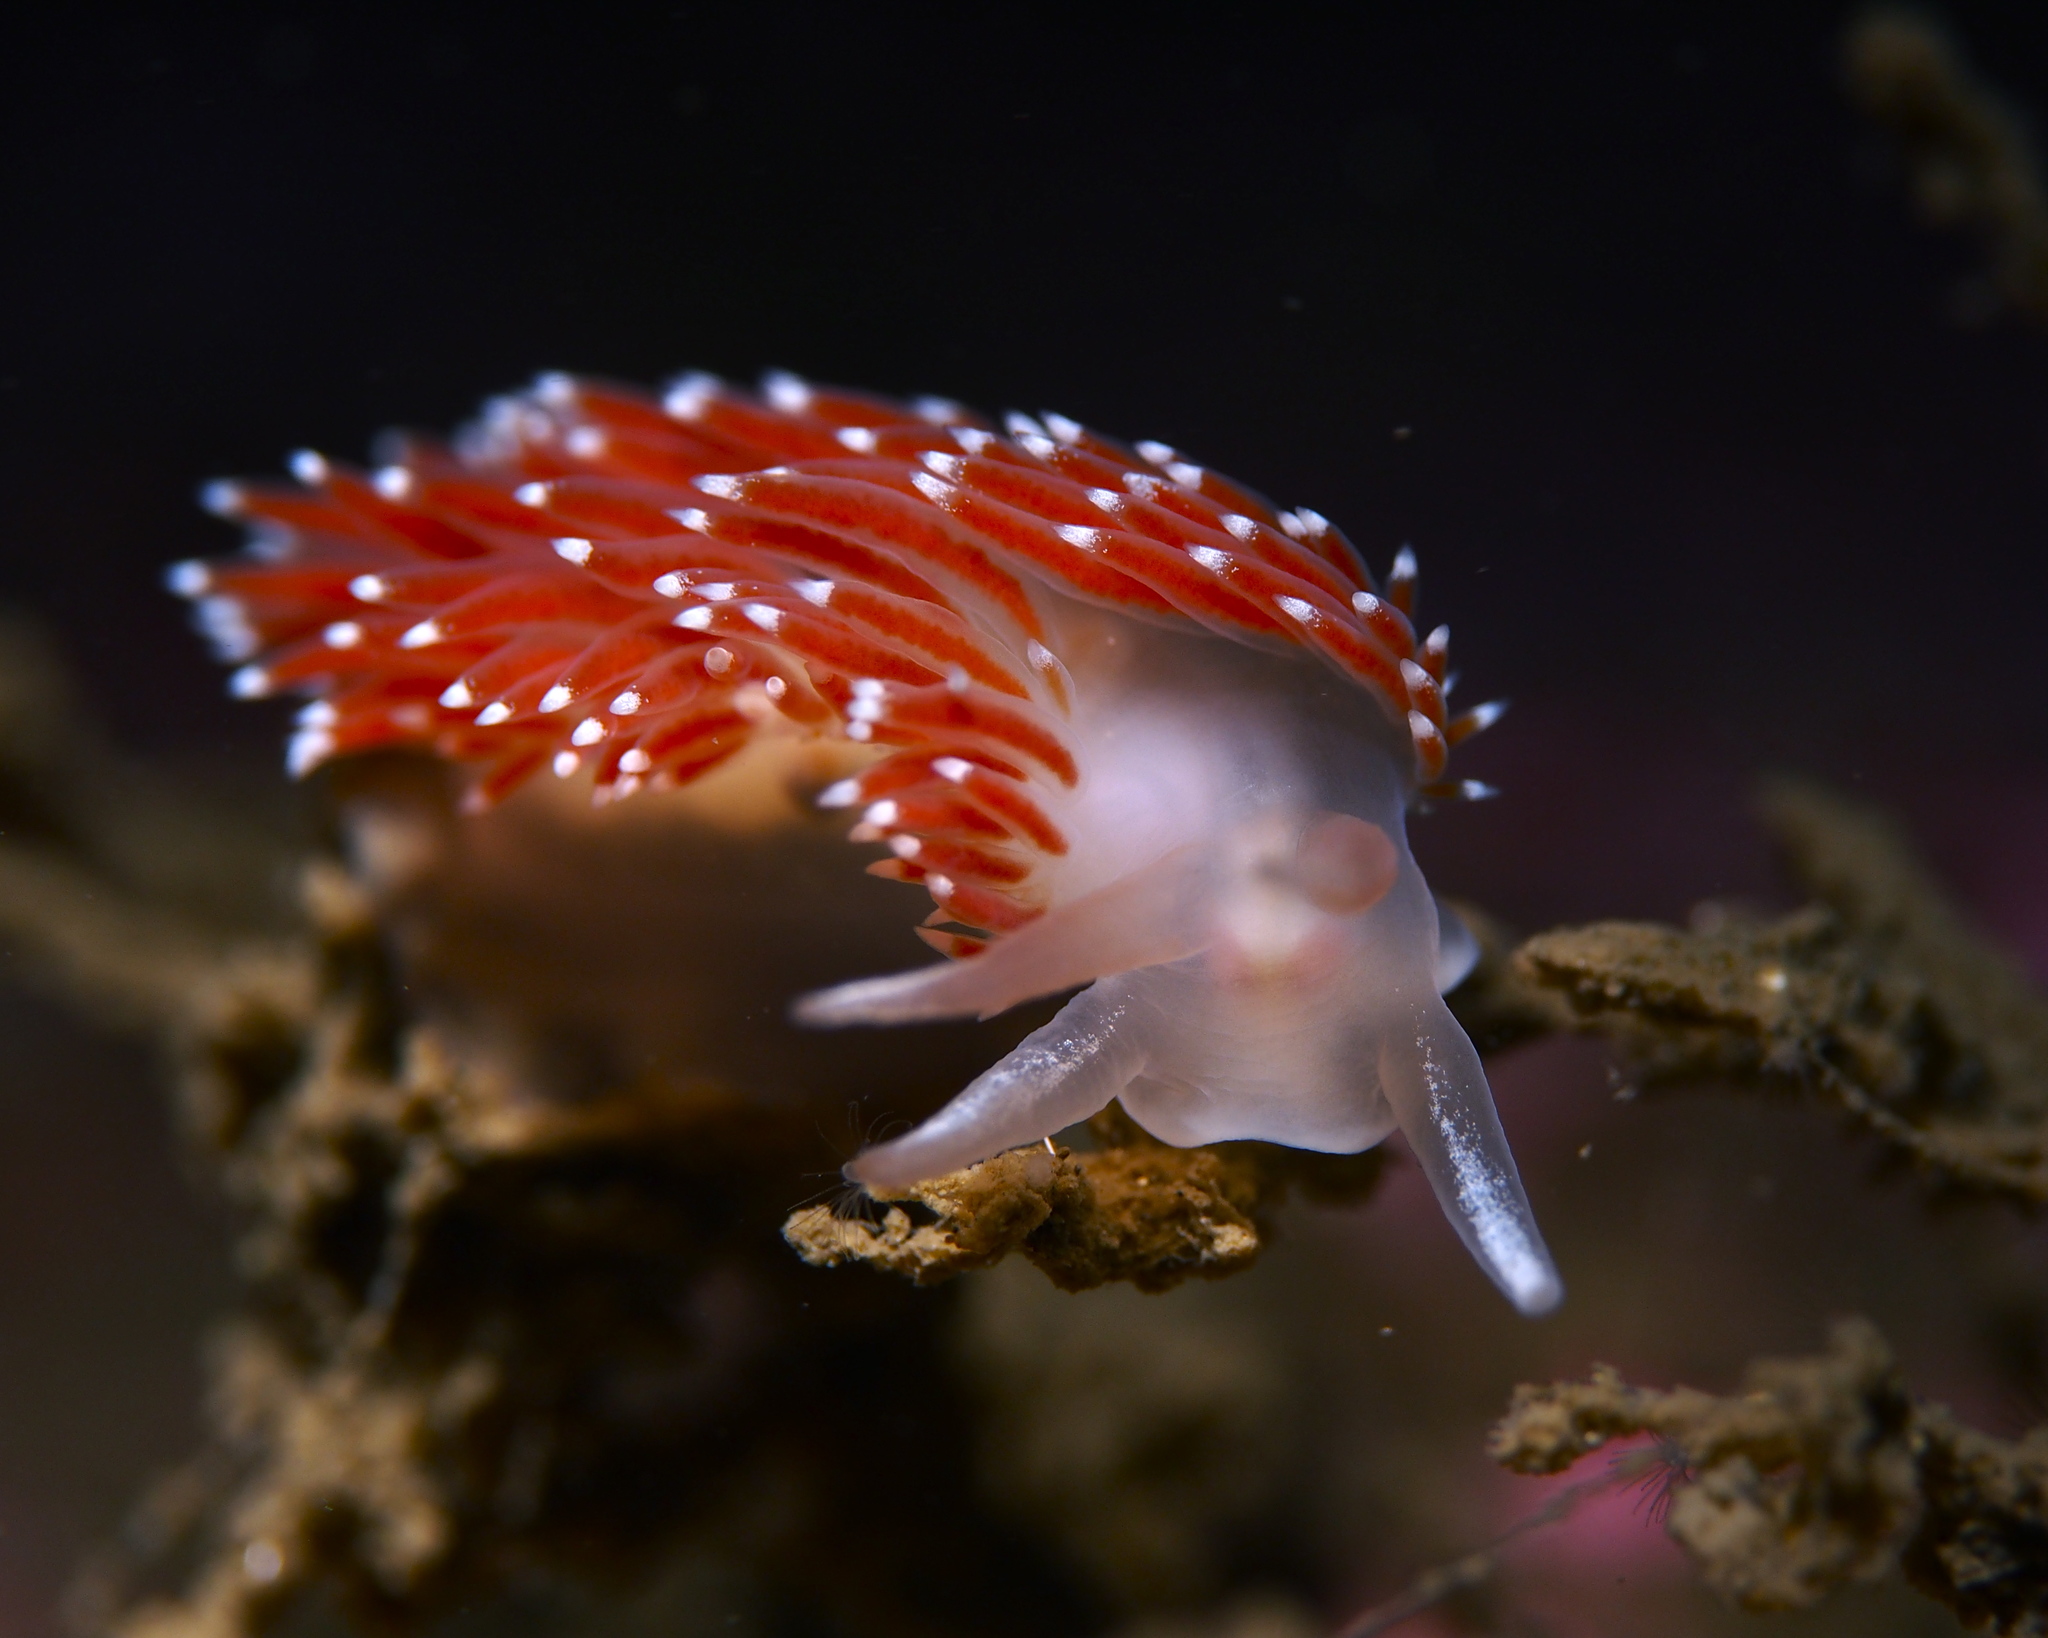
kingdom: Animalia
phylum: Mollusca
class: Gastropoda
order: Nudibranchia
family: Coryphellidae
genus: Coryphella
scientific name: Coryphella verrucosa
